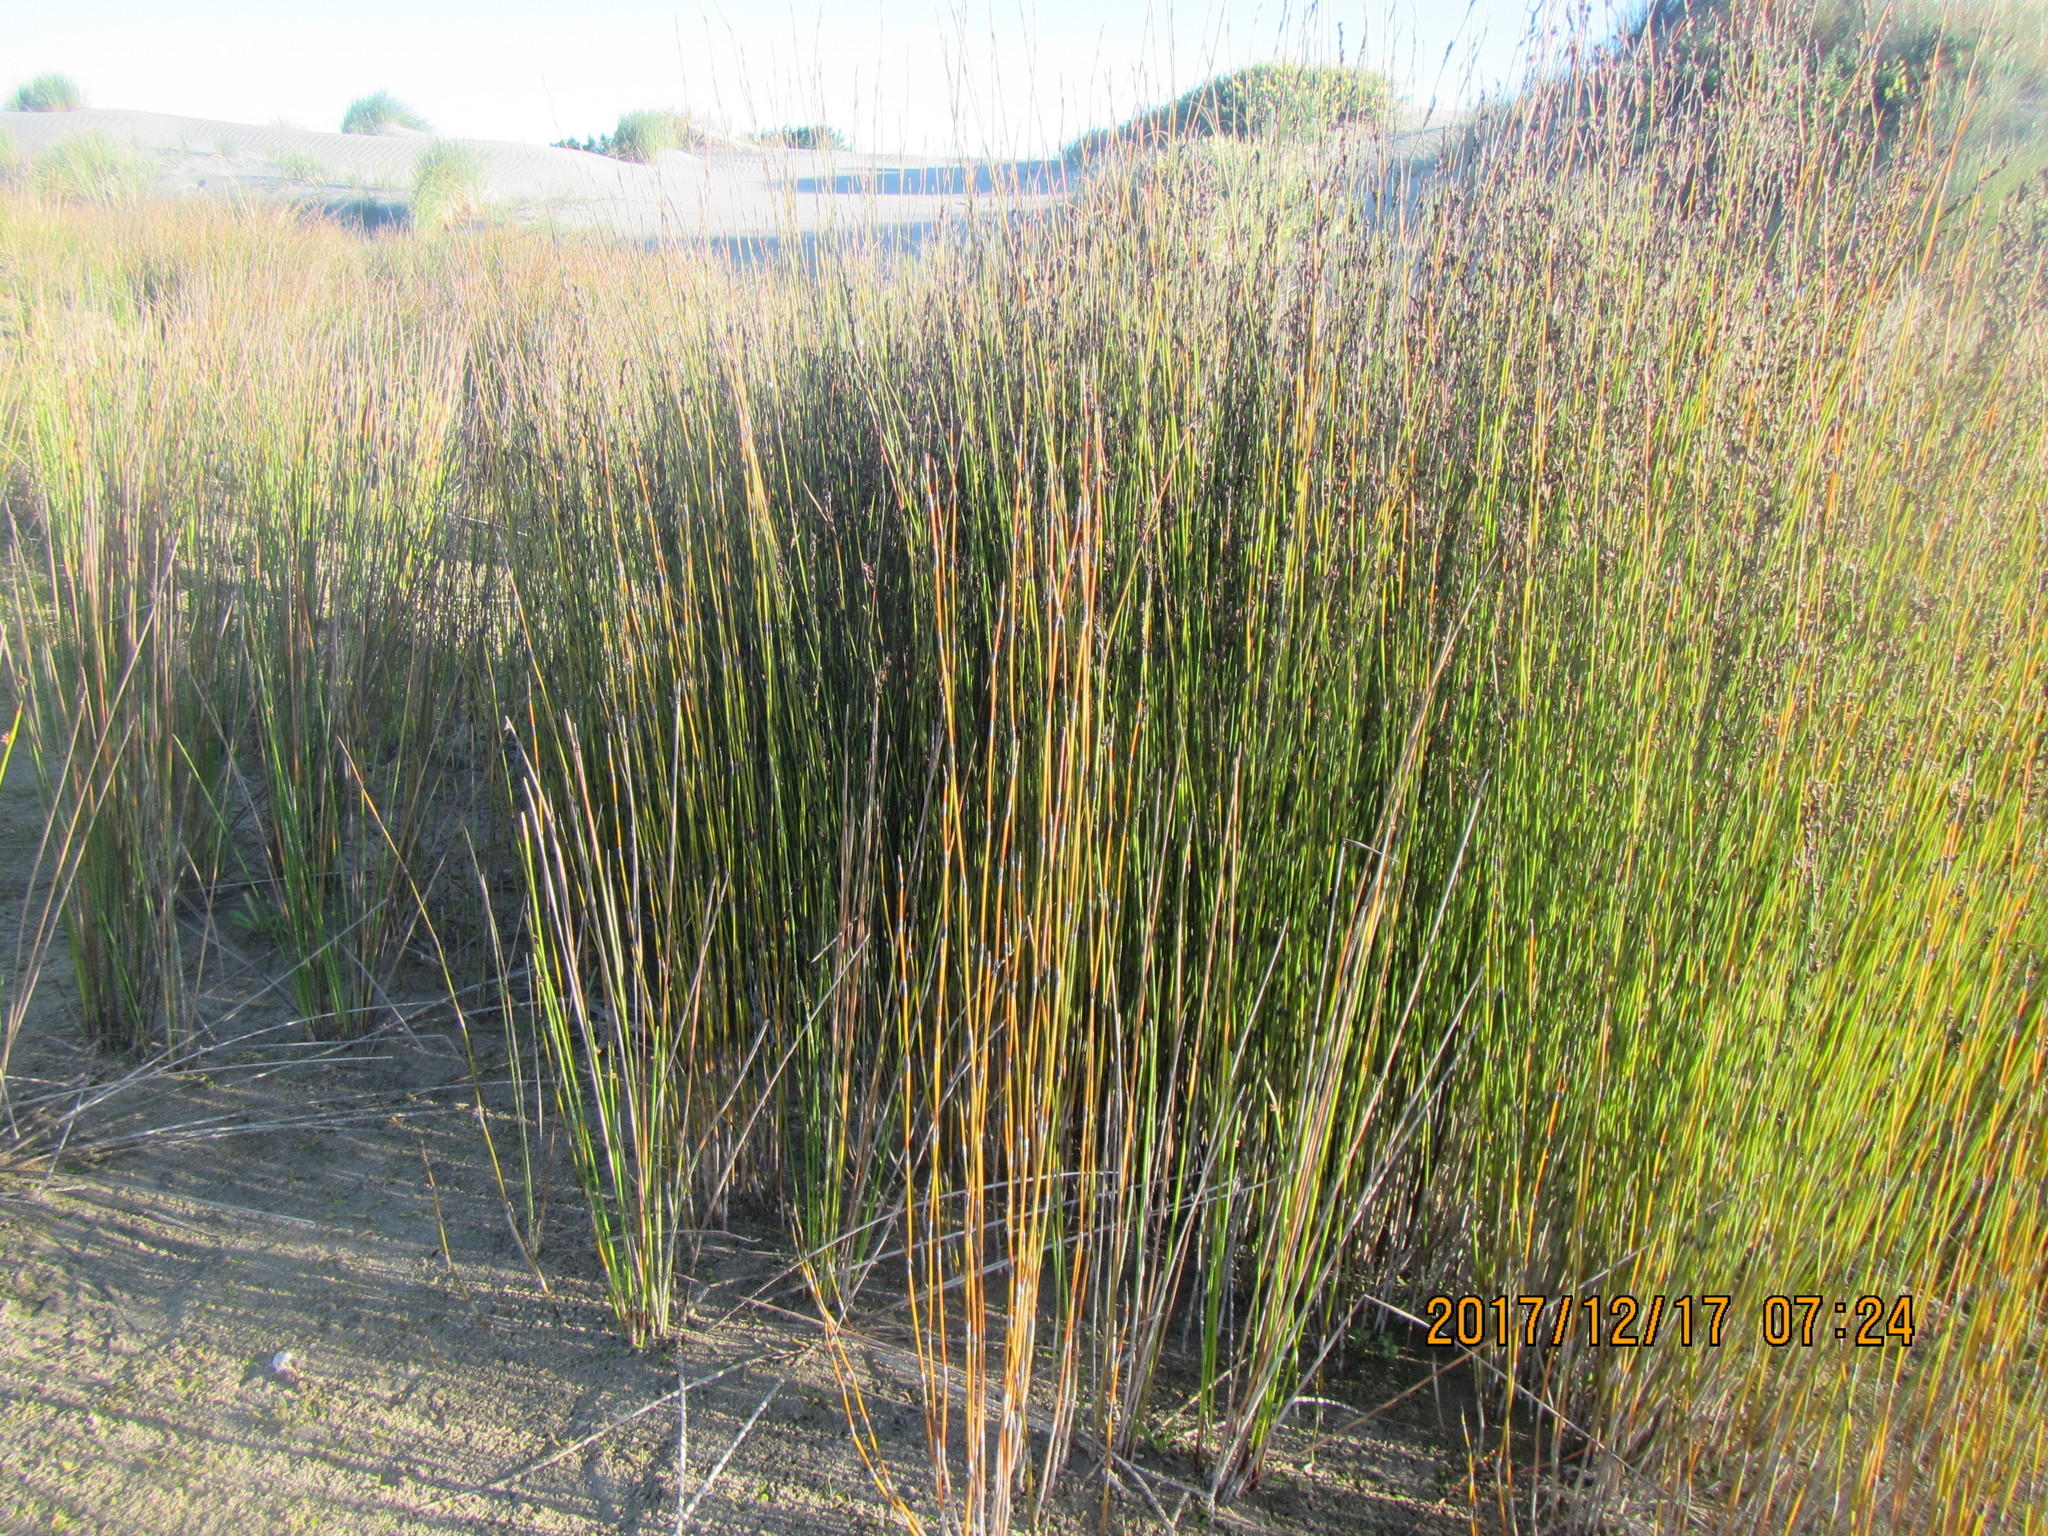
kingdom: Plantae
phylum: Tracheophyta
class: Liliopsida
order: Poales
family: Restionaceae
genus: Apodasmia
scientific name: Apodasmia similis
